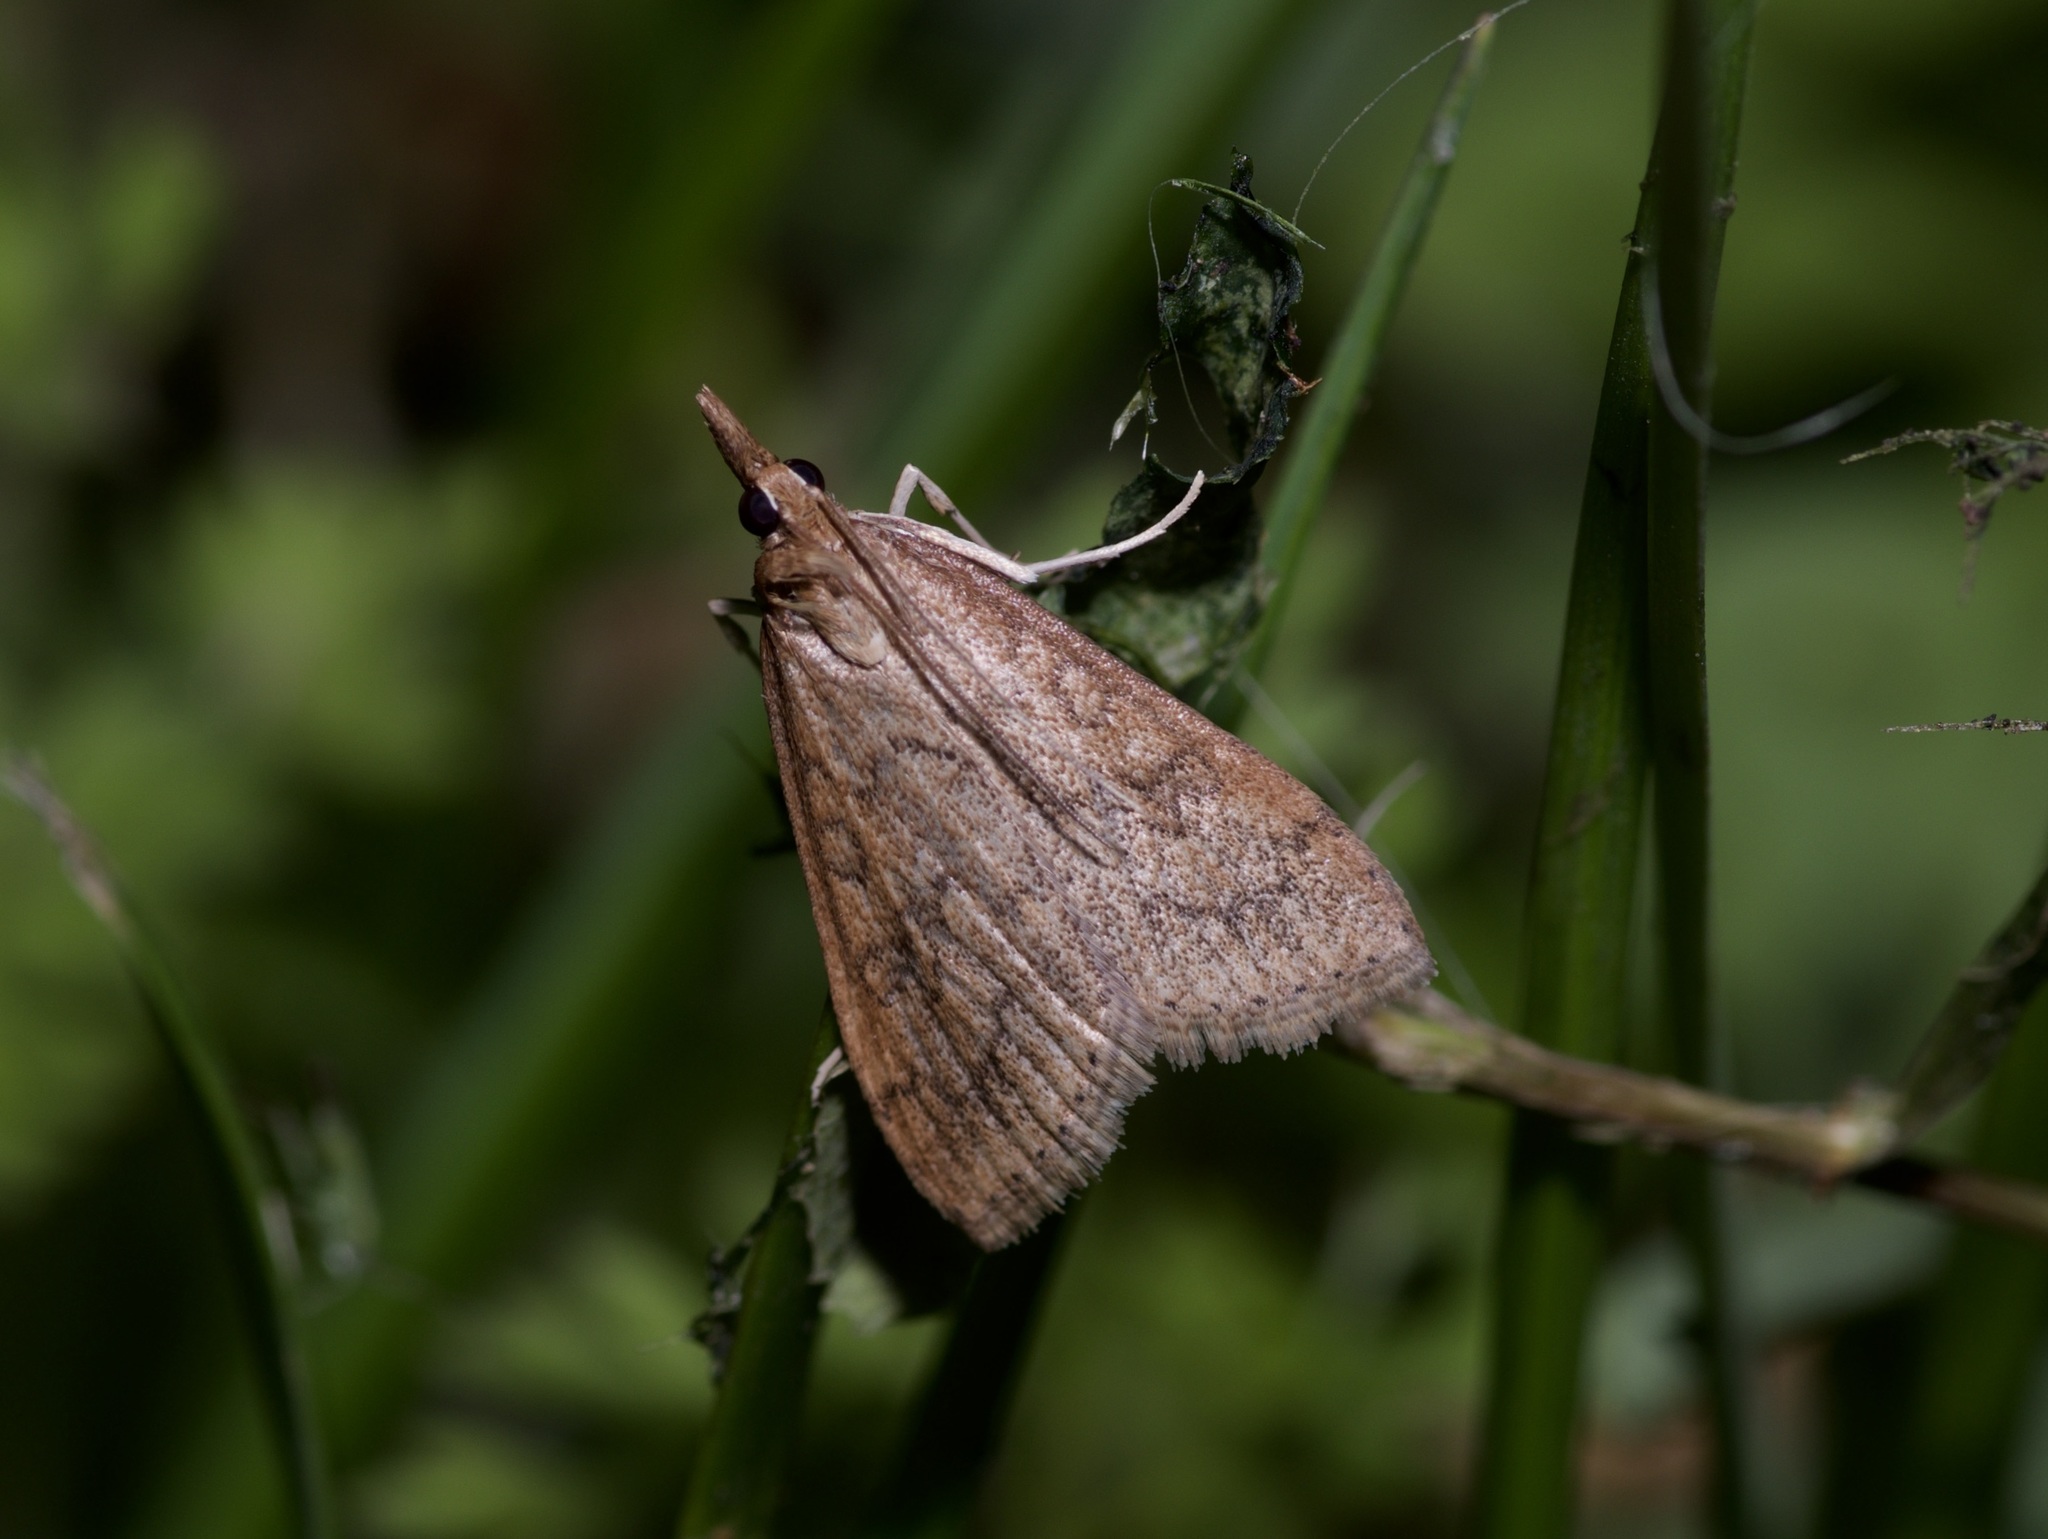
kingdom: Animalia
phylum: Arthropoda
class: Insecta
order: Lepidoptera
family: Crambidae
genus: Udea
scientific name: Udea rubigalis
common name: Celery leaftier moth
